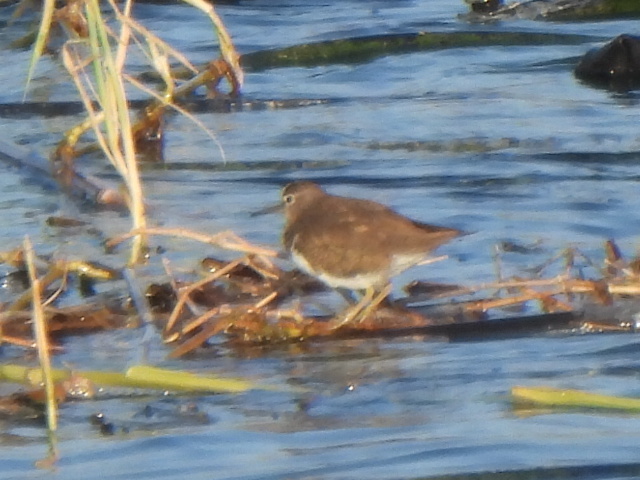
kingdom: Animalia
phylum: Chordata
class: Aves
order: Charadriiformes
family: Scolopacidae
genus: Actitis
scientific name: Actitis hypoleucos
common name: Common sandpiper
